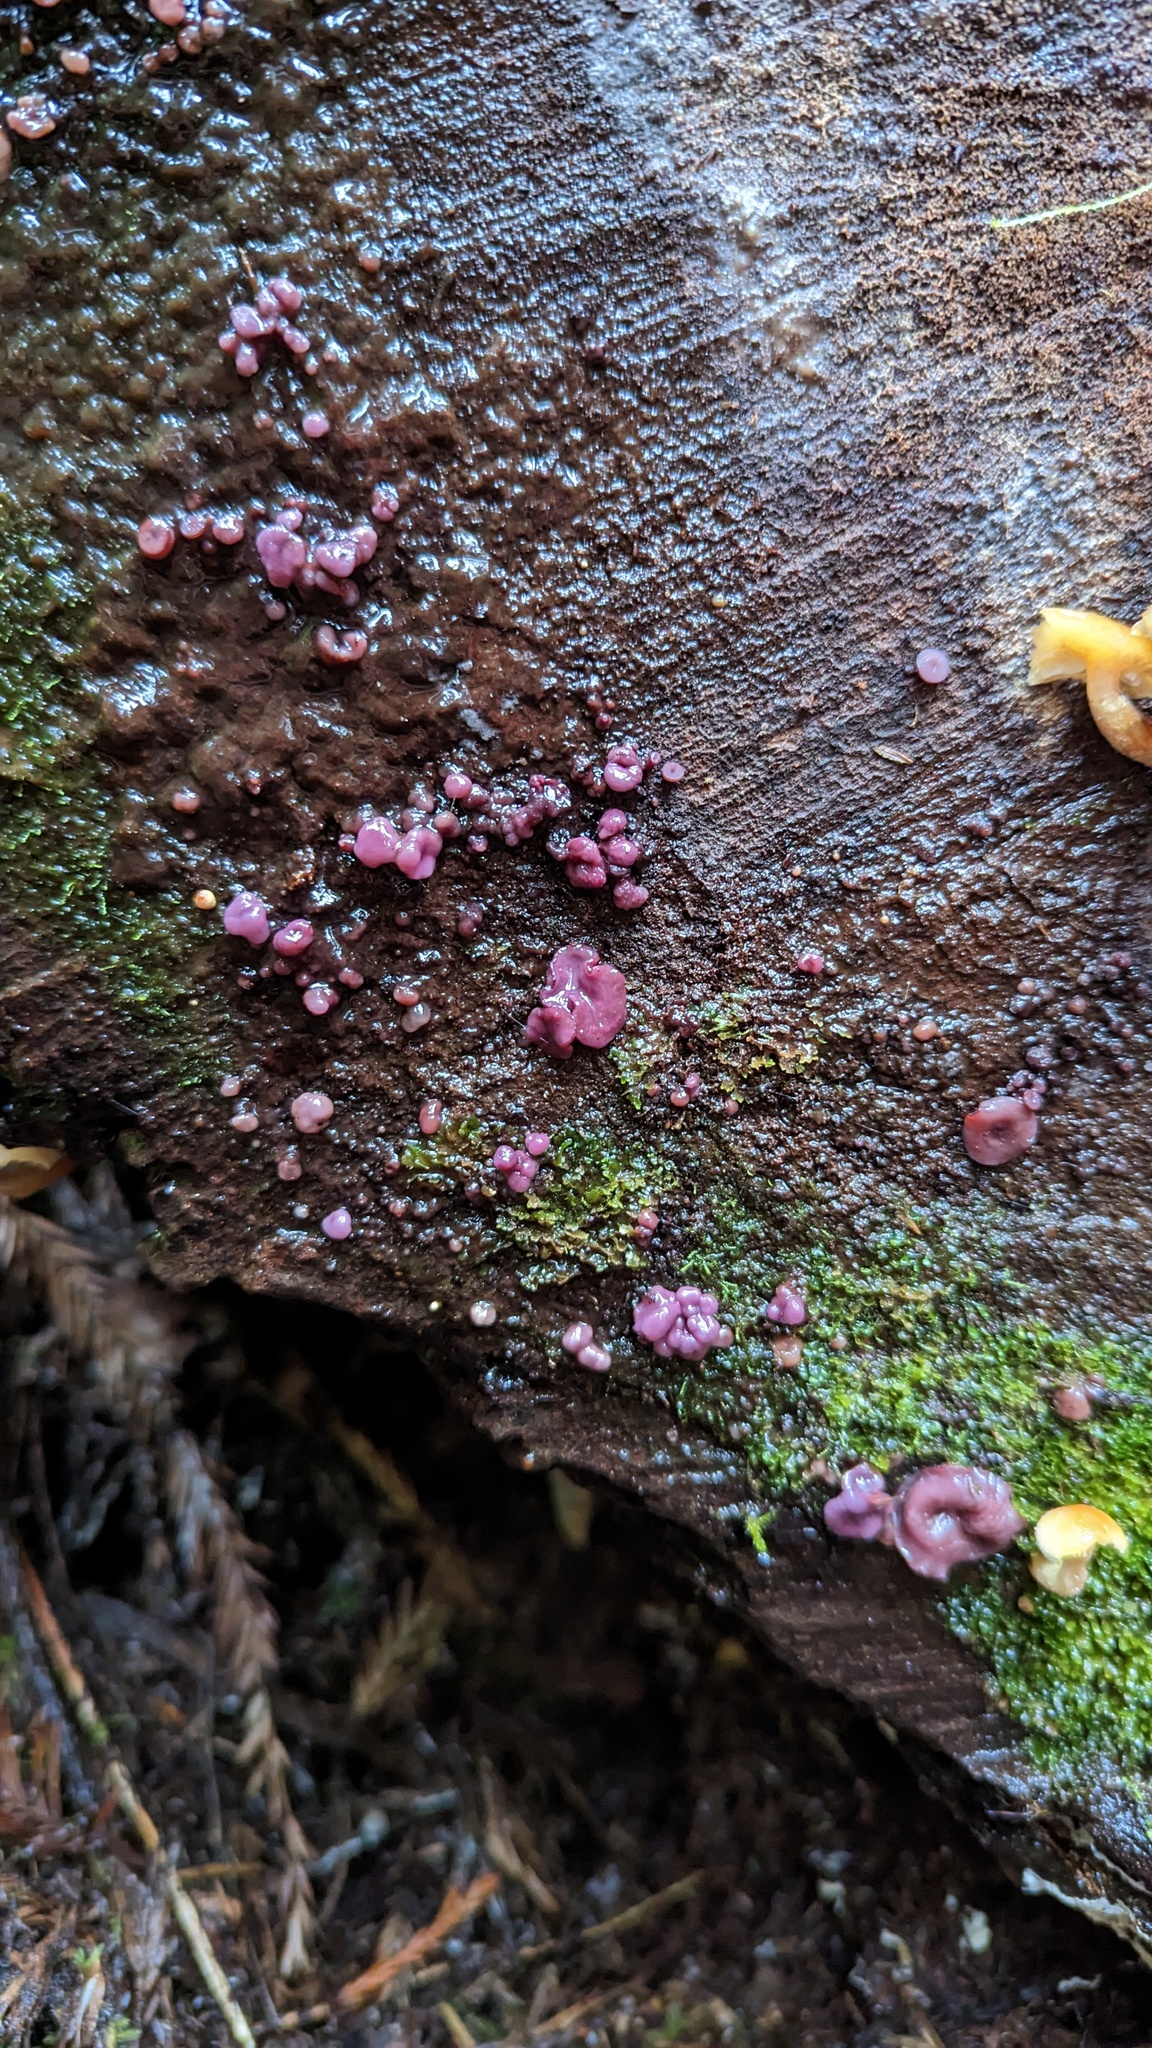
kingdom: Fungi
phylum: Ascomycota
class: Leotiomycetes
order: Helotiales
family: Gelatinodiscaceae
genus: Ascocoryne
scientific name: Ascocoryne sarcoides
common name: Purple jellydisc
